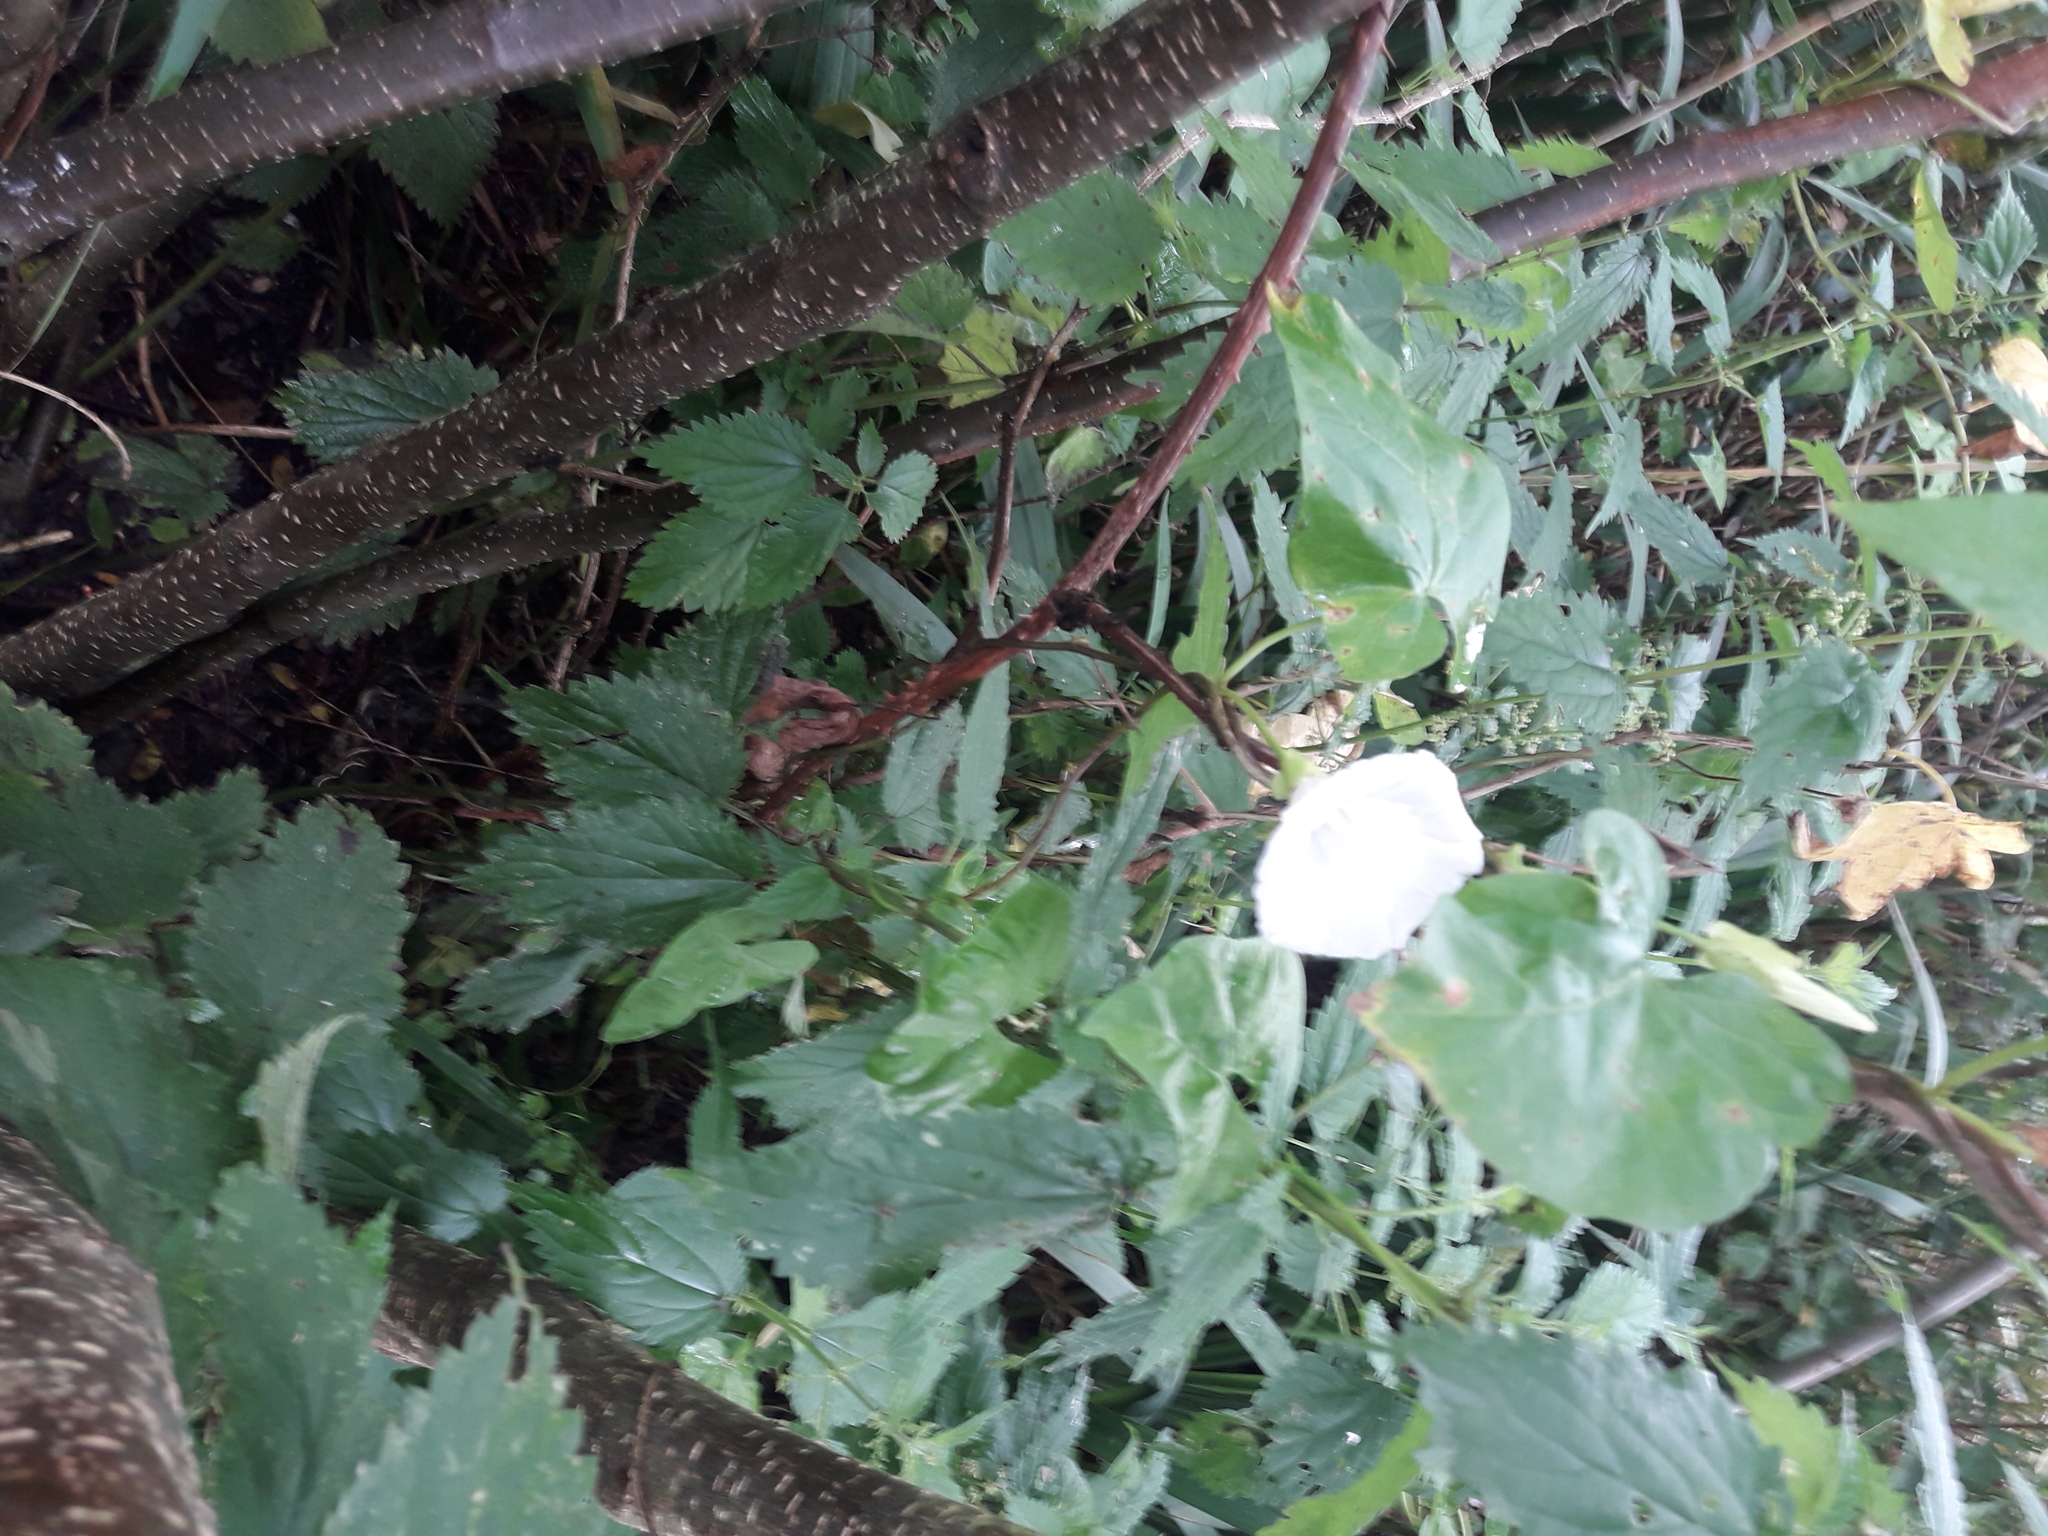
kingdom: Plantae
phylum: Tracheophyta
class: Magnoliopsida
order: Solanales
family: Convolvulaceae
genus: Calystegia
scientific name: Calystegia sepium
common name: Hedge bindweed
